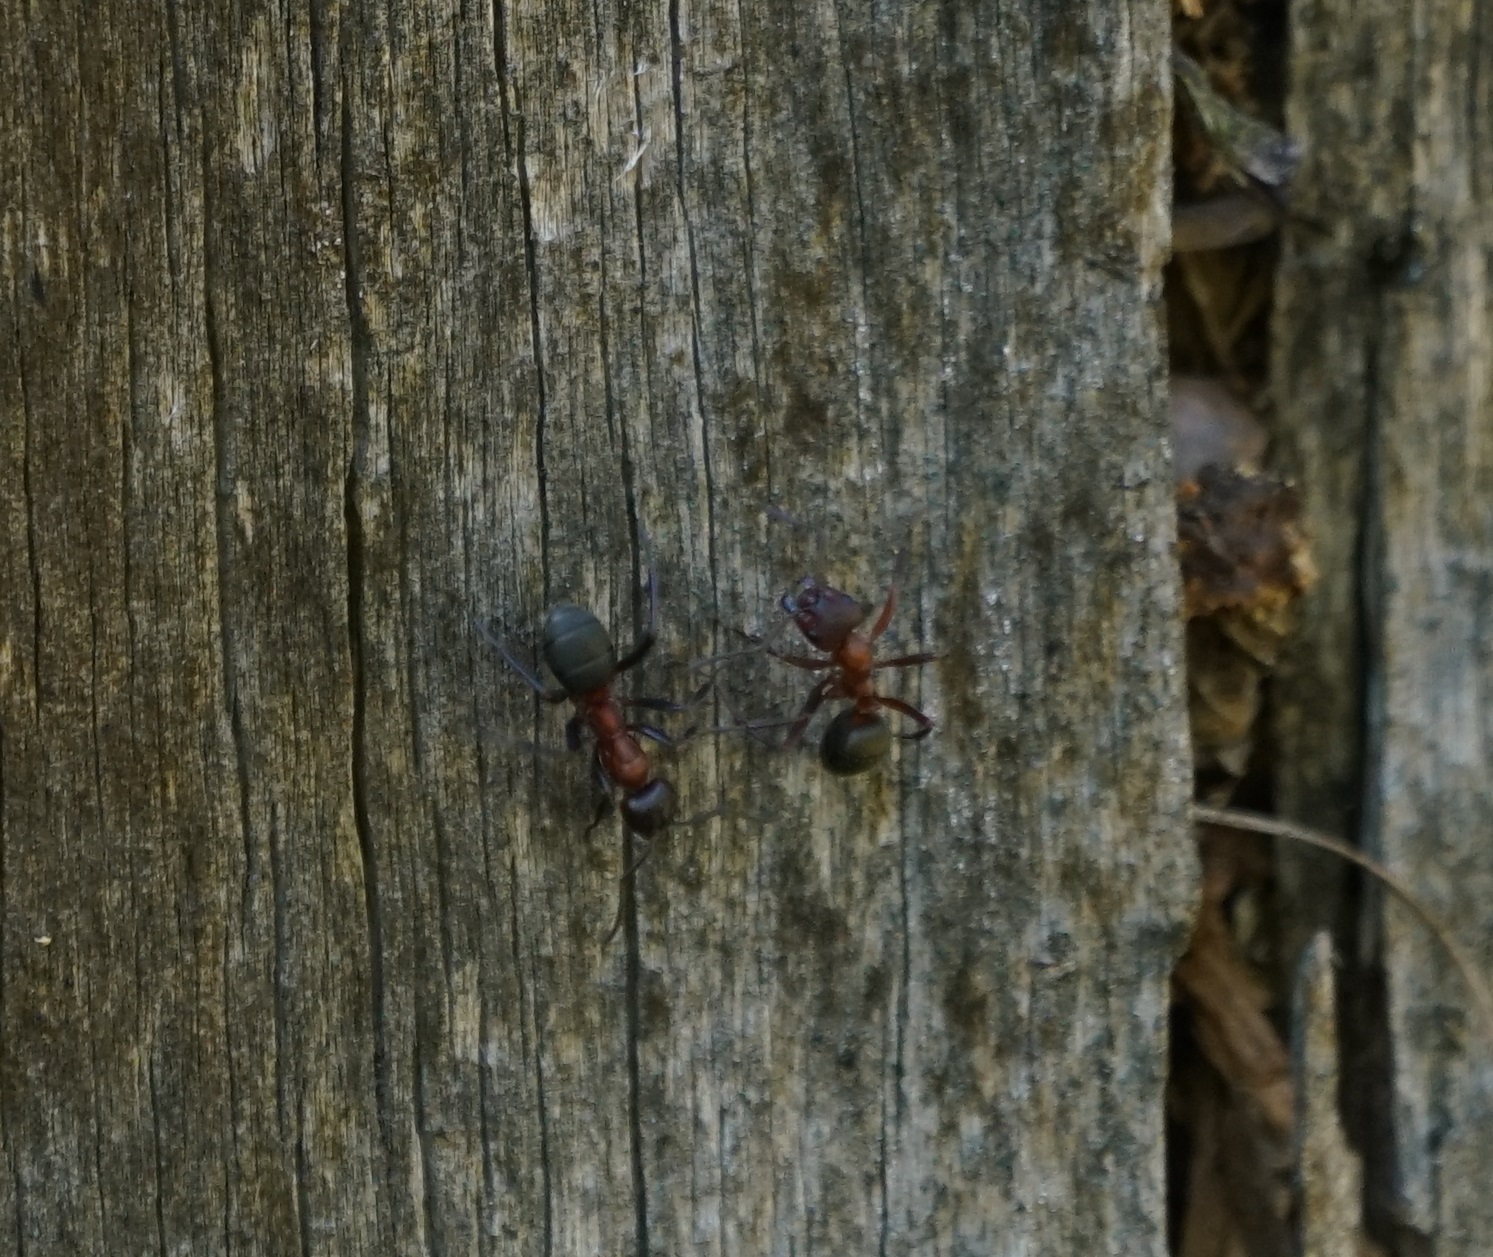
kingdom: Animalia
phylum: Arthropoda
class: Insecta
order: Hymenoptera
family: Formicidae
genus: Formica
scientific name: Formica sanguinea
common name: Blood-red ant
